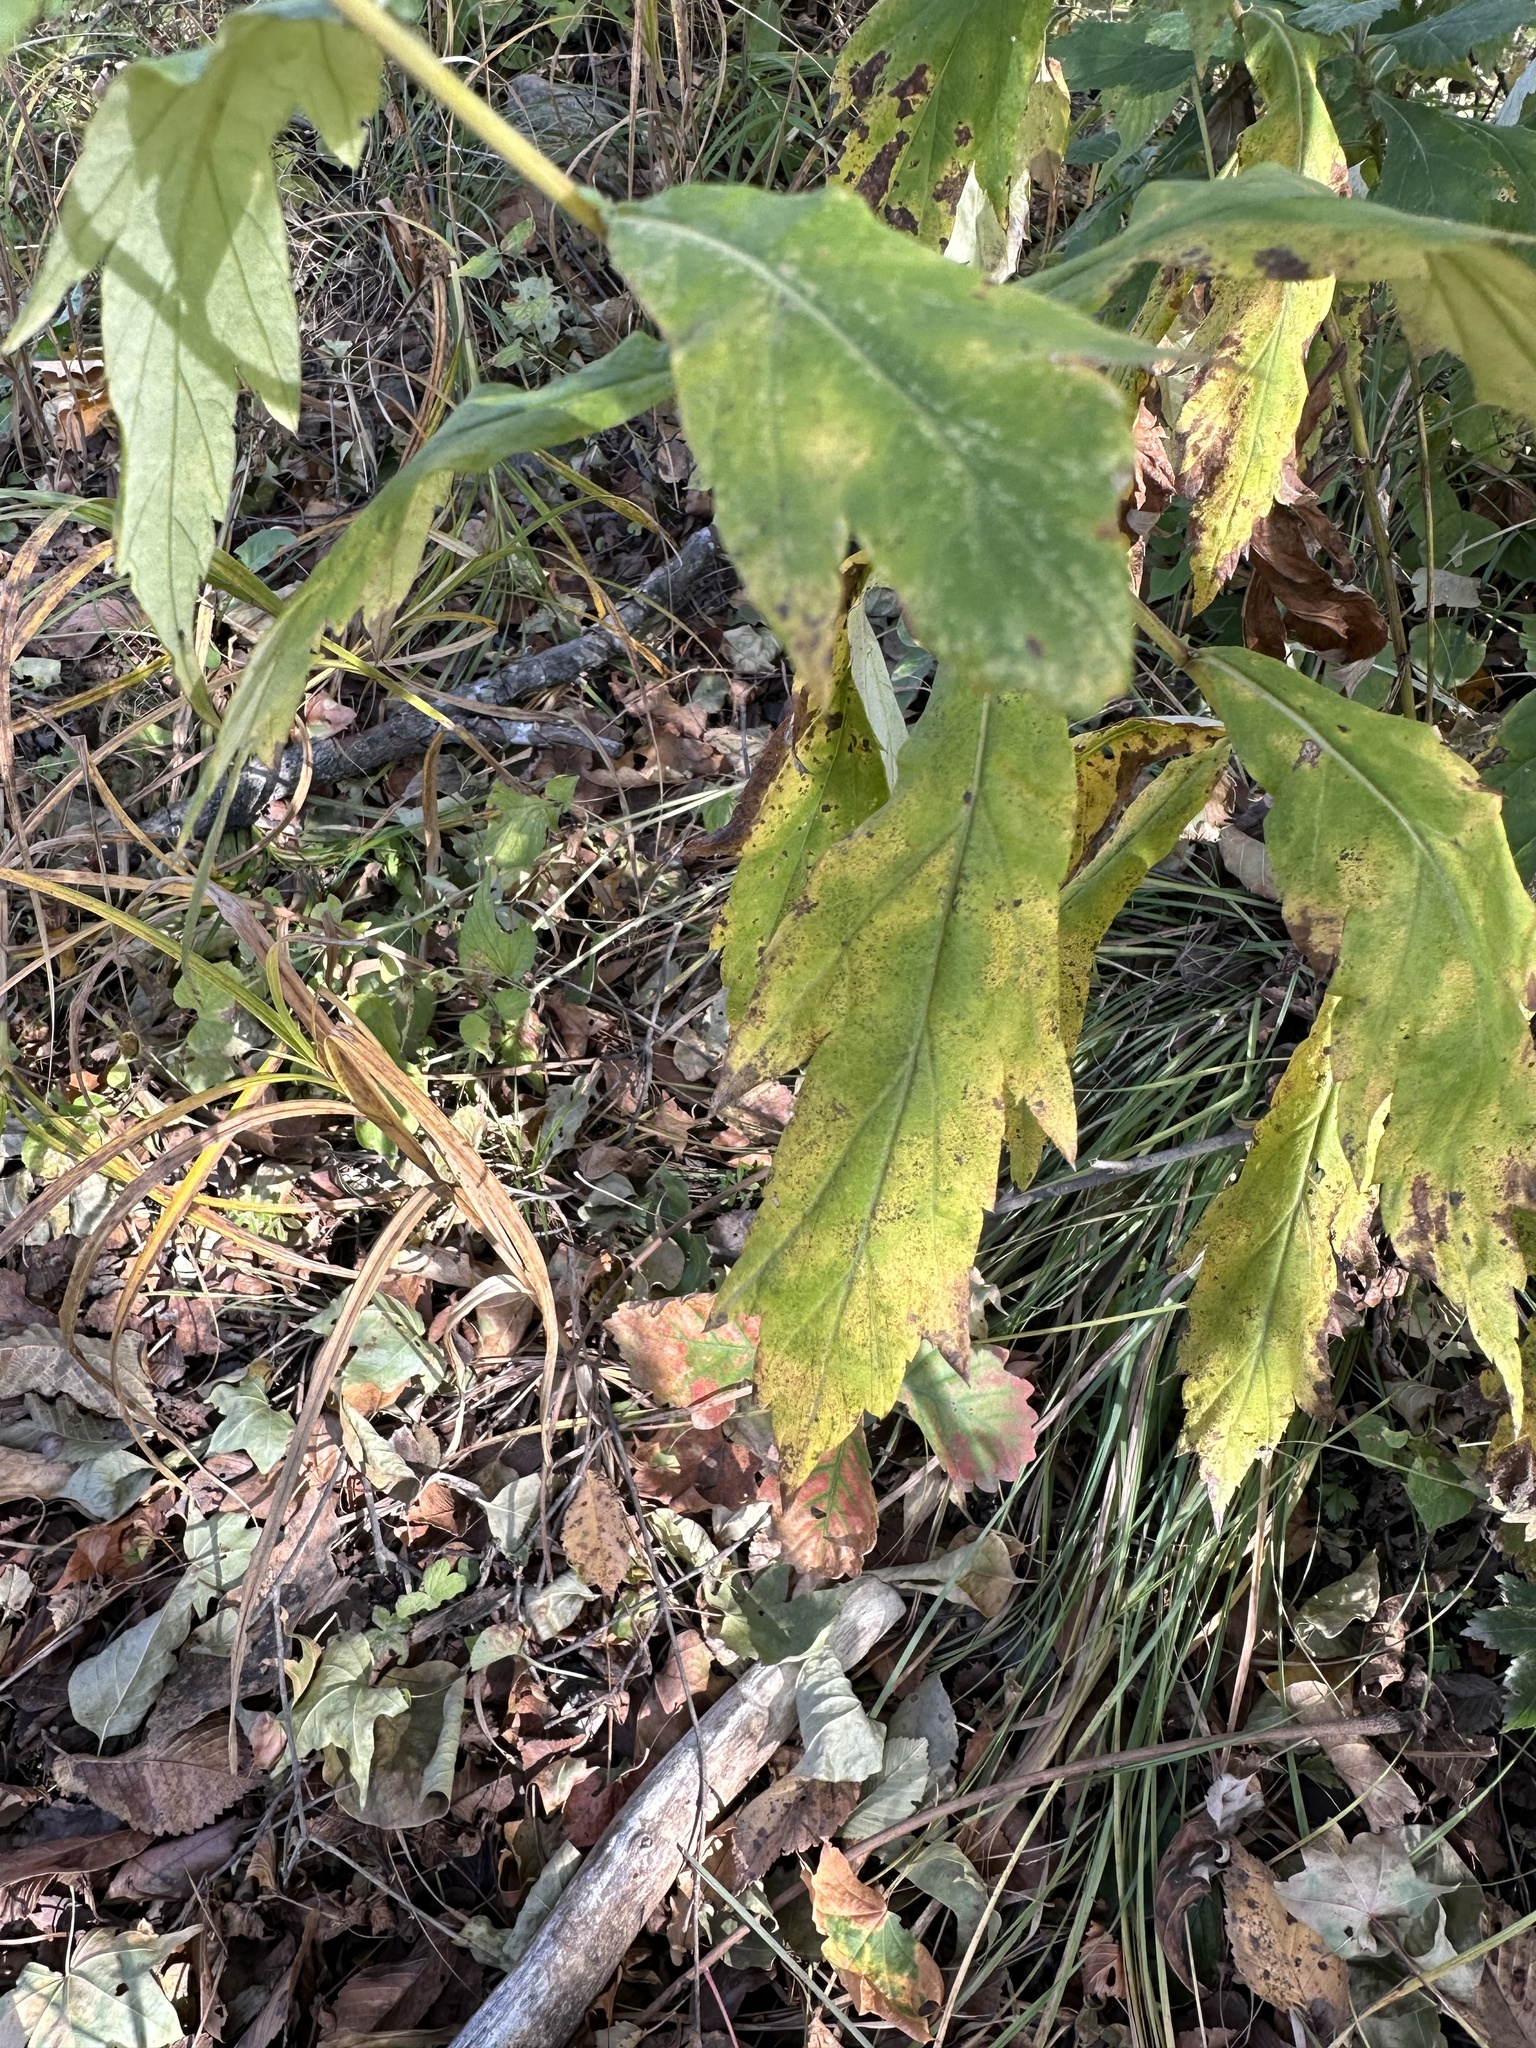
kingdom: Plantae
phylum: Tracheophyta
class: Magnoliopsida
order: Asterales
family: Asteraceae
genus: Artemisia
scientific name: Artemisia stolonifera
